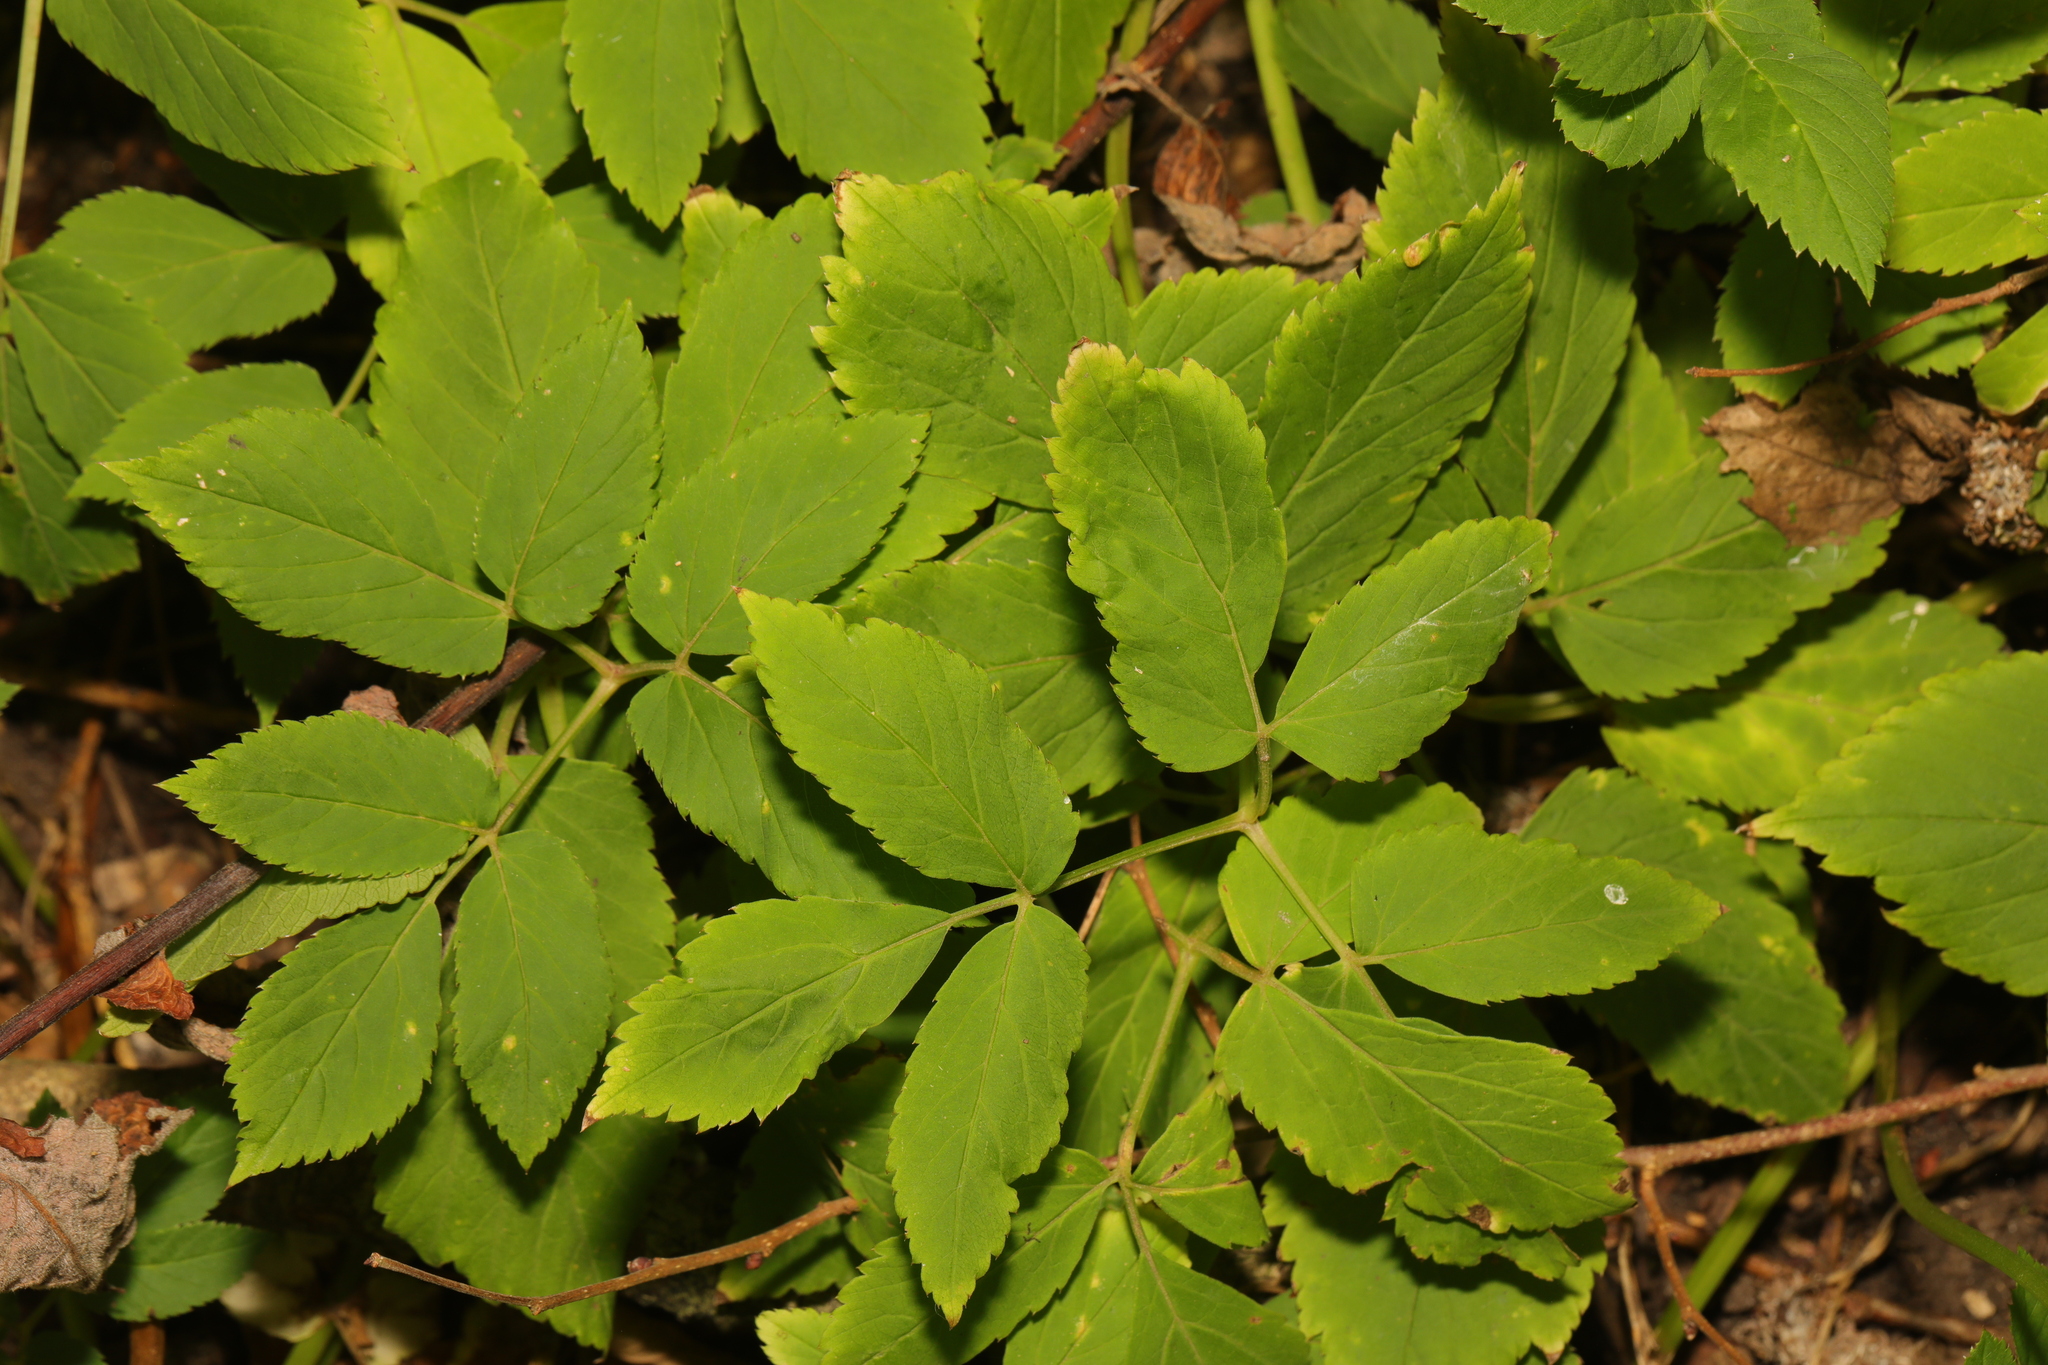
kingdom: Plantae
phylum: Tracheophyta
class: Magnoliopsida
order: Apiales
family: Apiaceae
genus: Aegopodium
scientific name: Aegopodium podagraria
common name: Ground-elder
